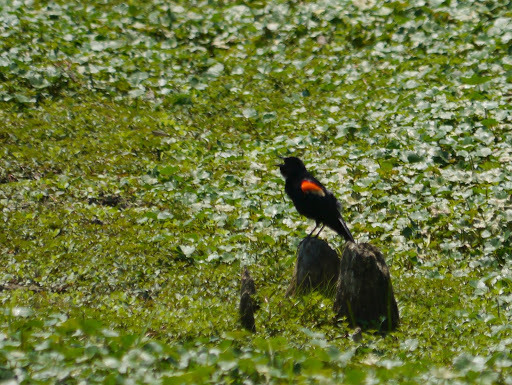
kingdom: Animalia
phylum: Chordata
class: Aves
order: Passeriformes
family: Icteridae
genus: Agelaius
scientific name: Agelaius phoeniceus
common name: Red-winged blackbird
